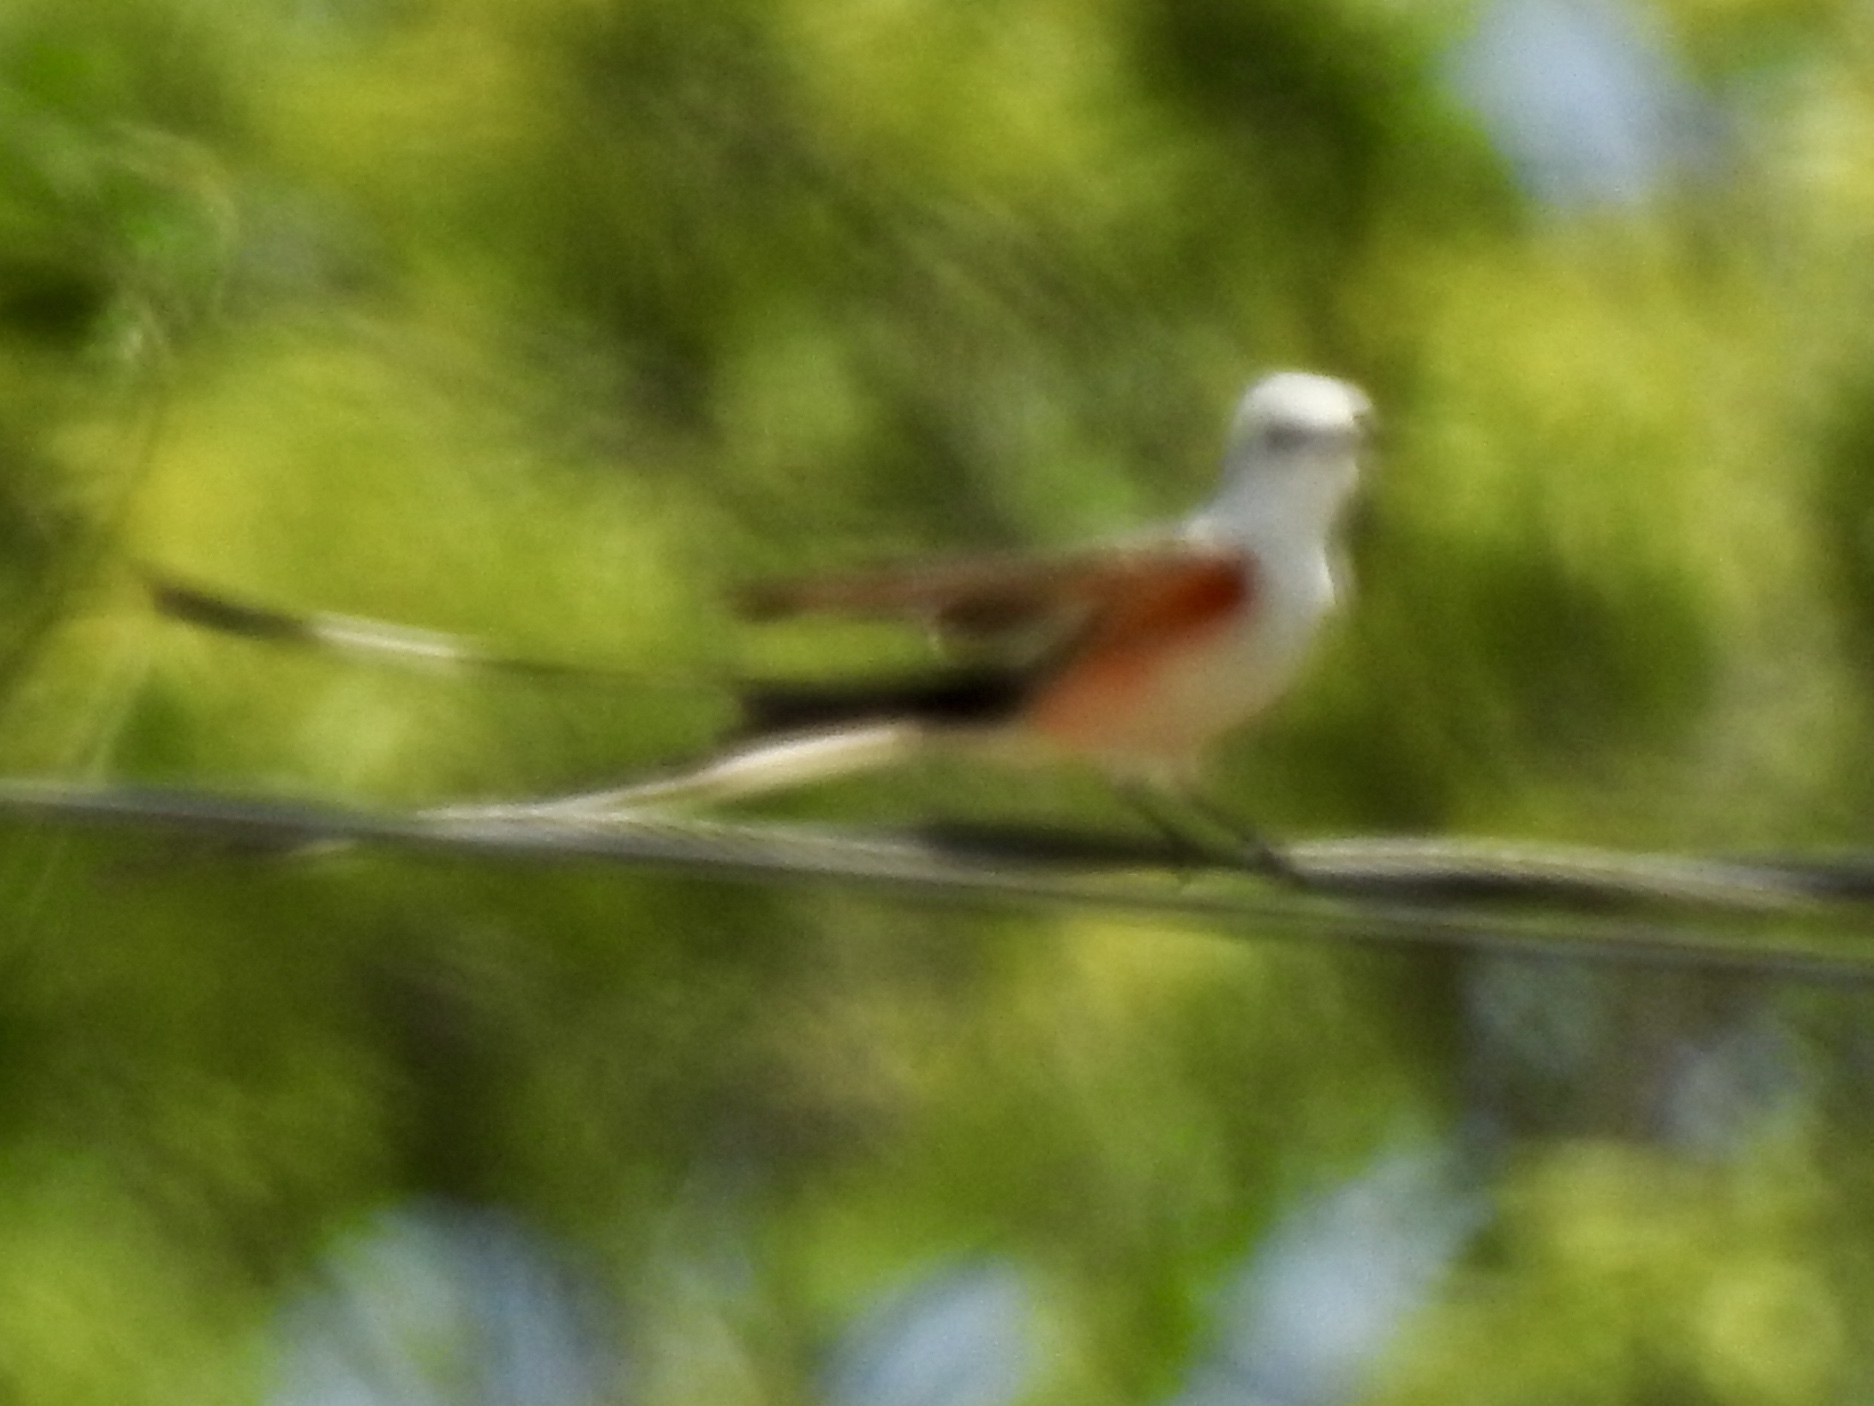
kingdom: Animalia
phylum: Chordata
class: Aves
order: Passeriformes
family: Tyrannidae
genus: Tyrannus
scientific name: Tyrannus forficatus
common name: Scissor-tailed flycatcher
